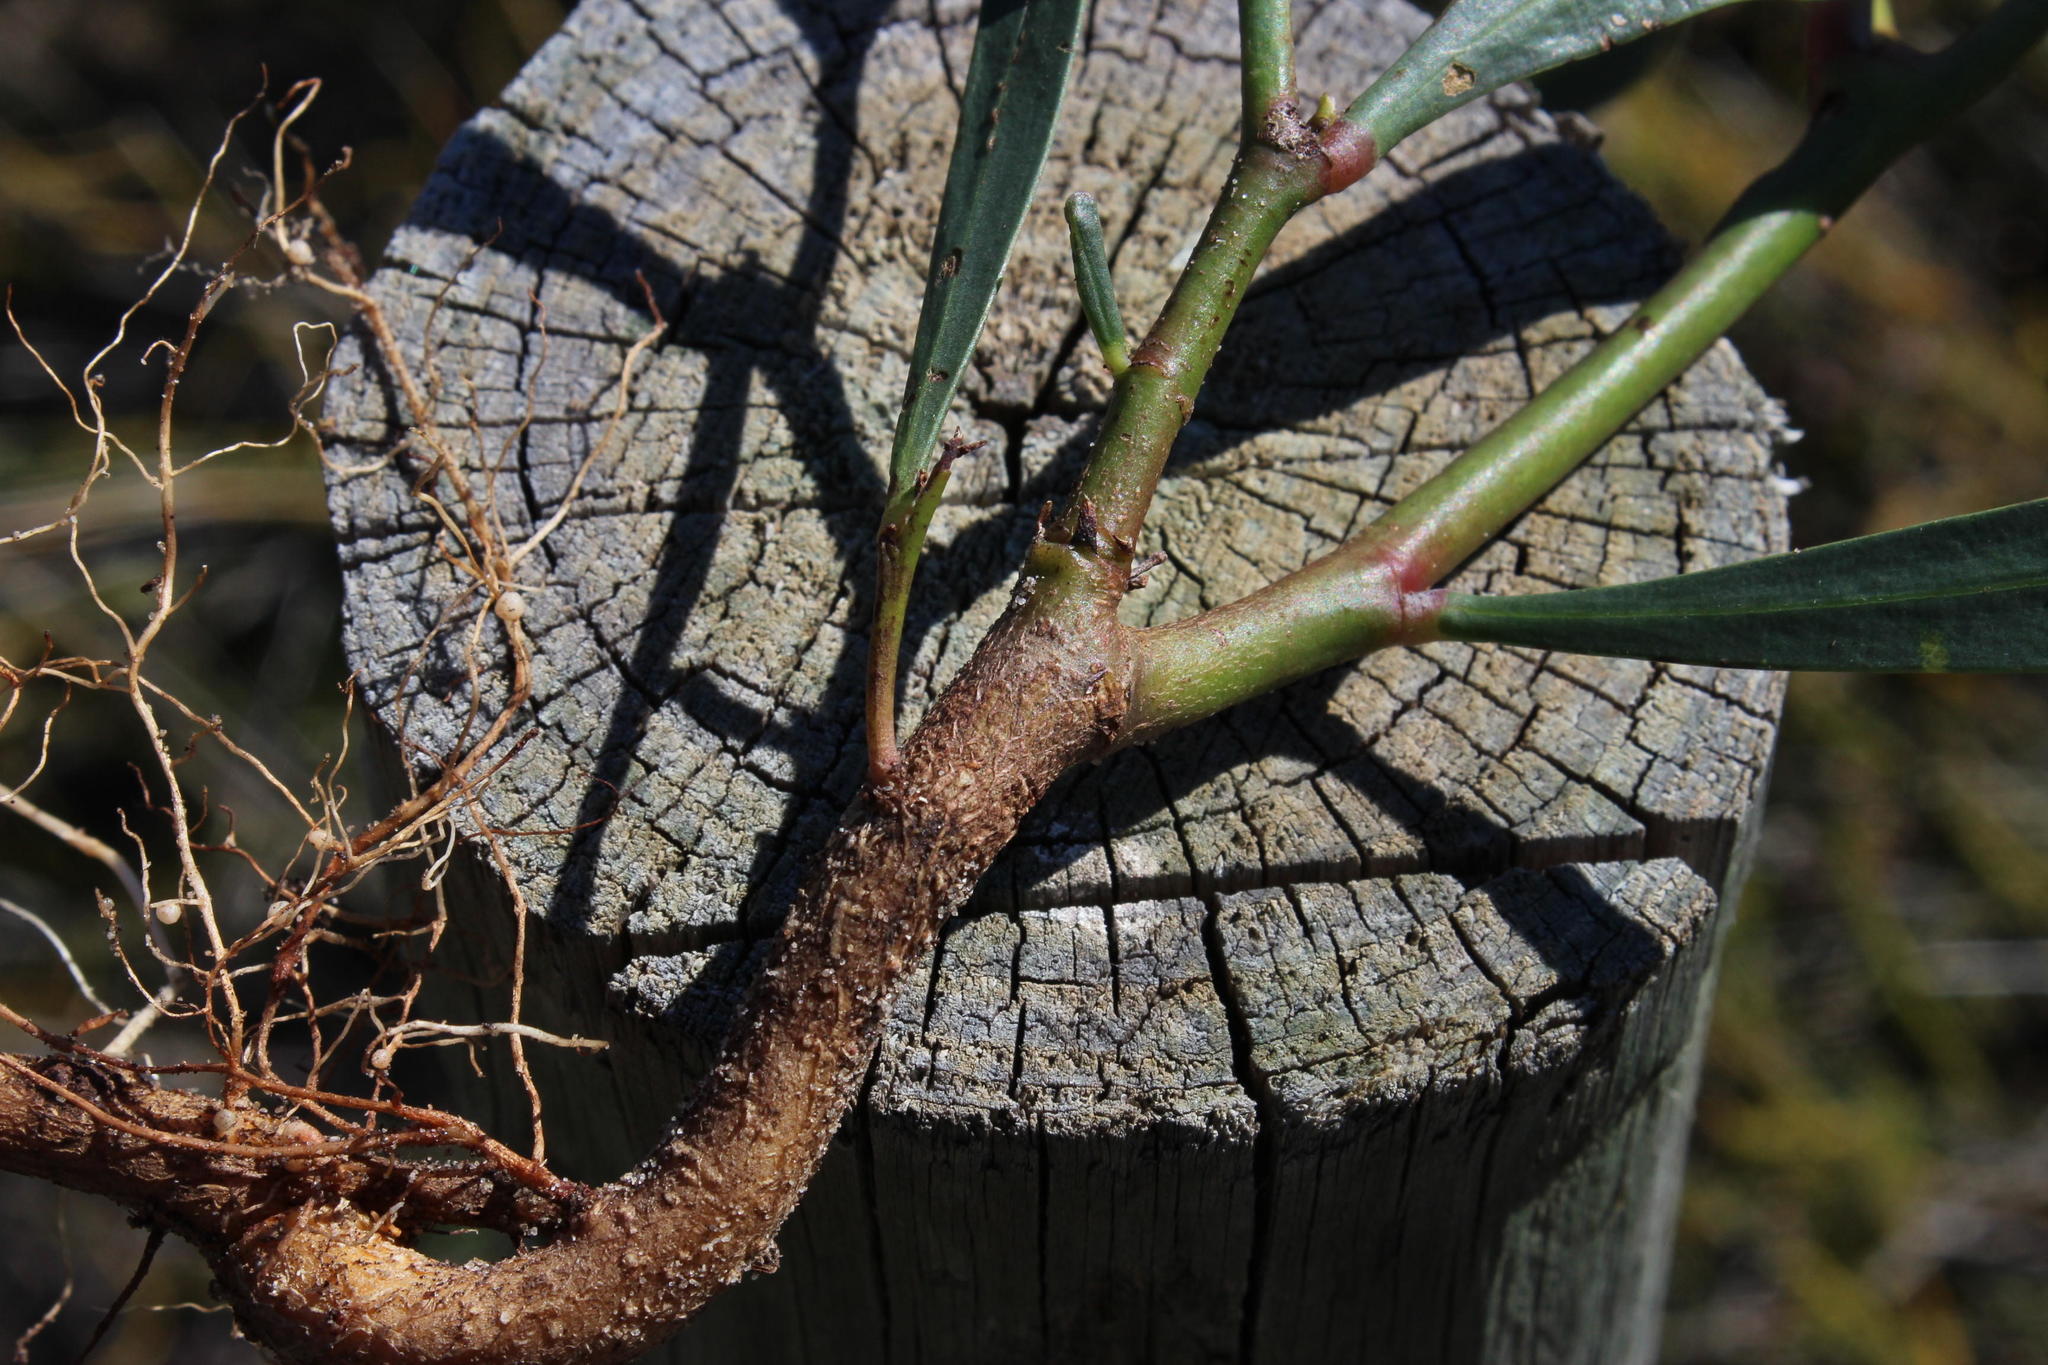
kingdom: Plantae
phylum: Tracheophyta
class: Magnoliopsida
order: Fabales
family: Fabaceae
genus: Acacia
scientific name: Acacia saligna
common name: Orange wattle
